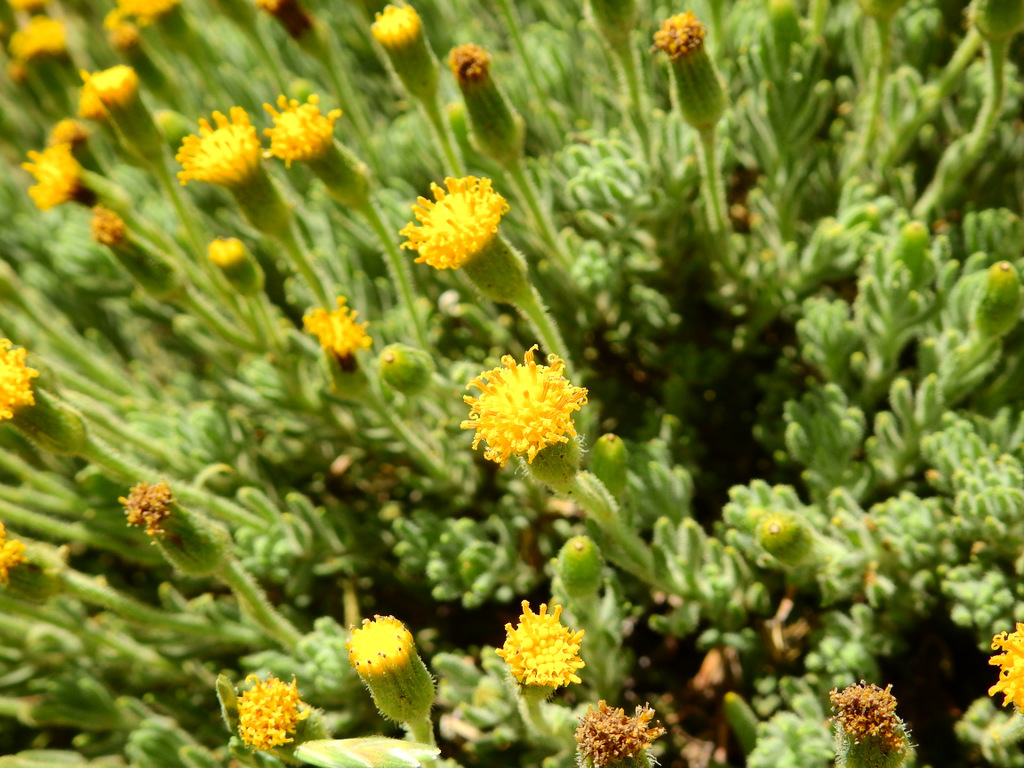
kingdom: Plantae
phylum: Tracheophyta
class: Magnoliopsida
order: Asterales
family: Asteraceae
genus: Senecio
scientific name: Senecio tristis
